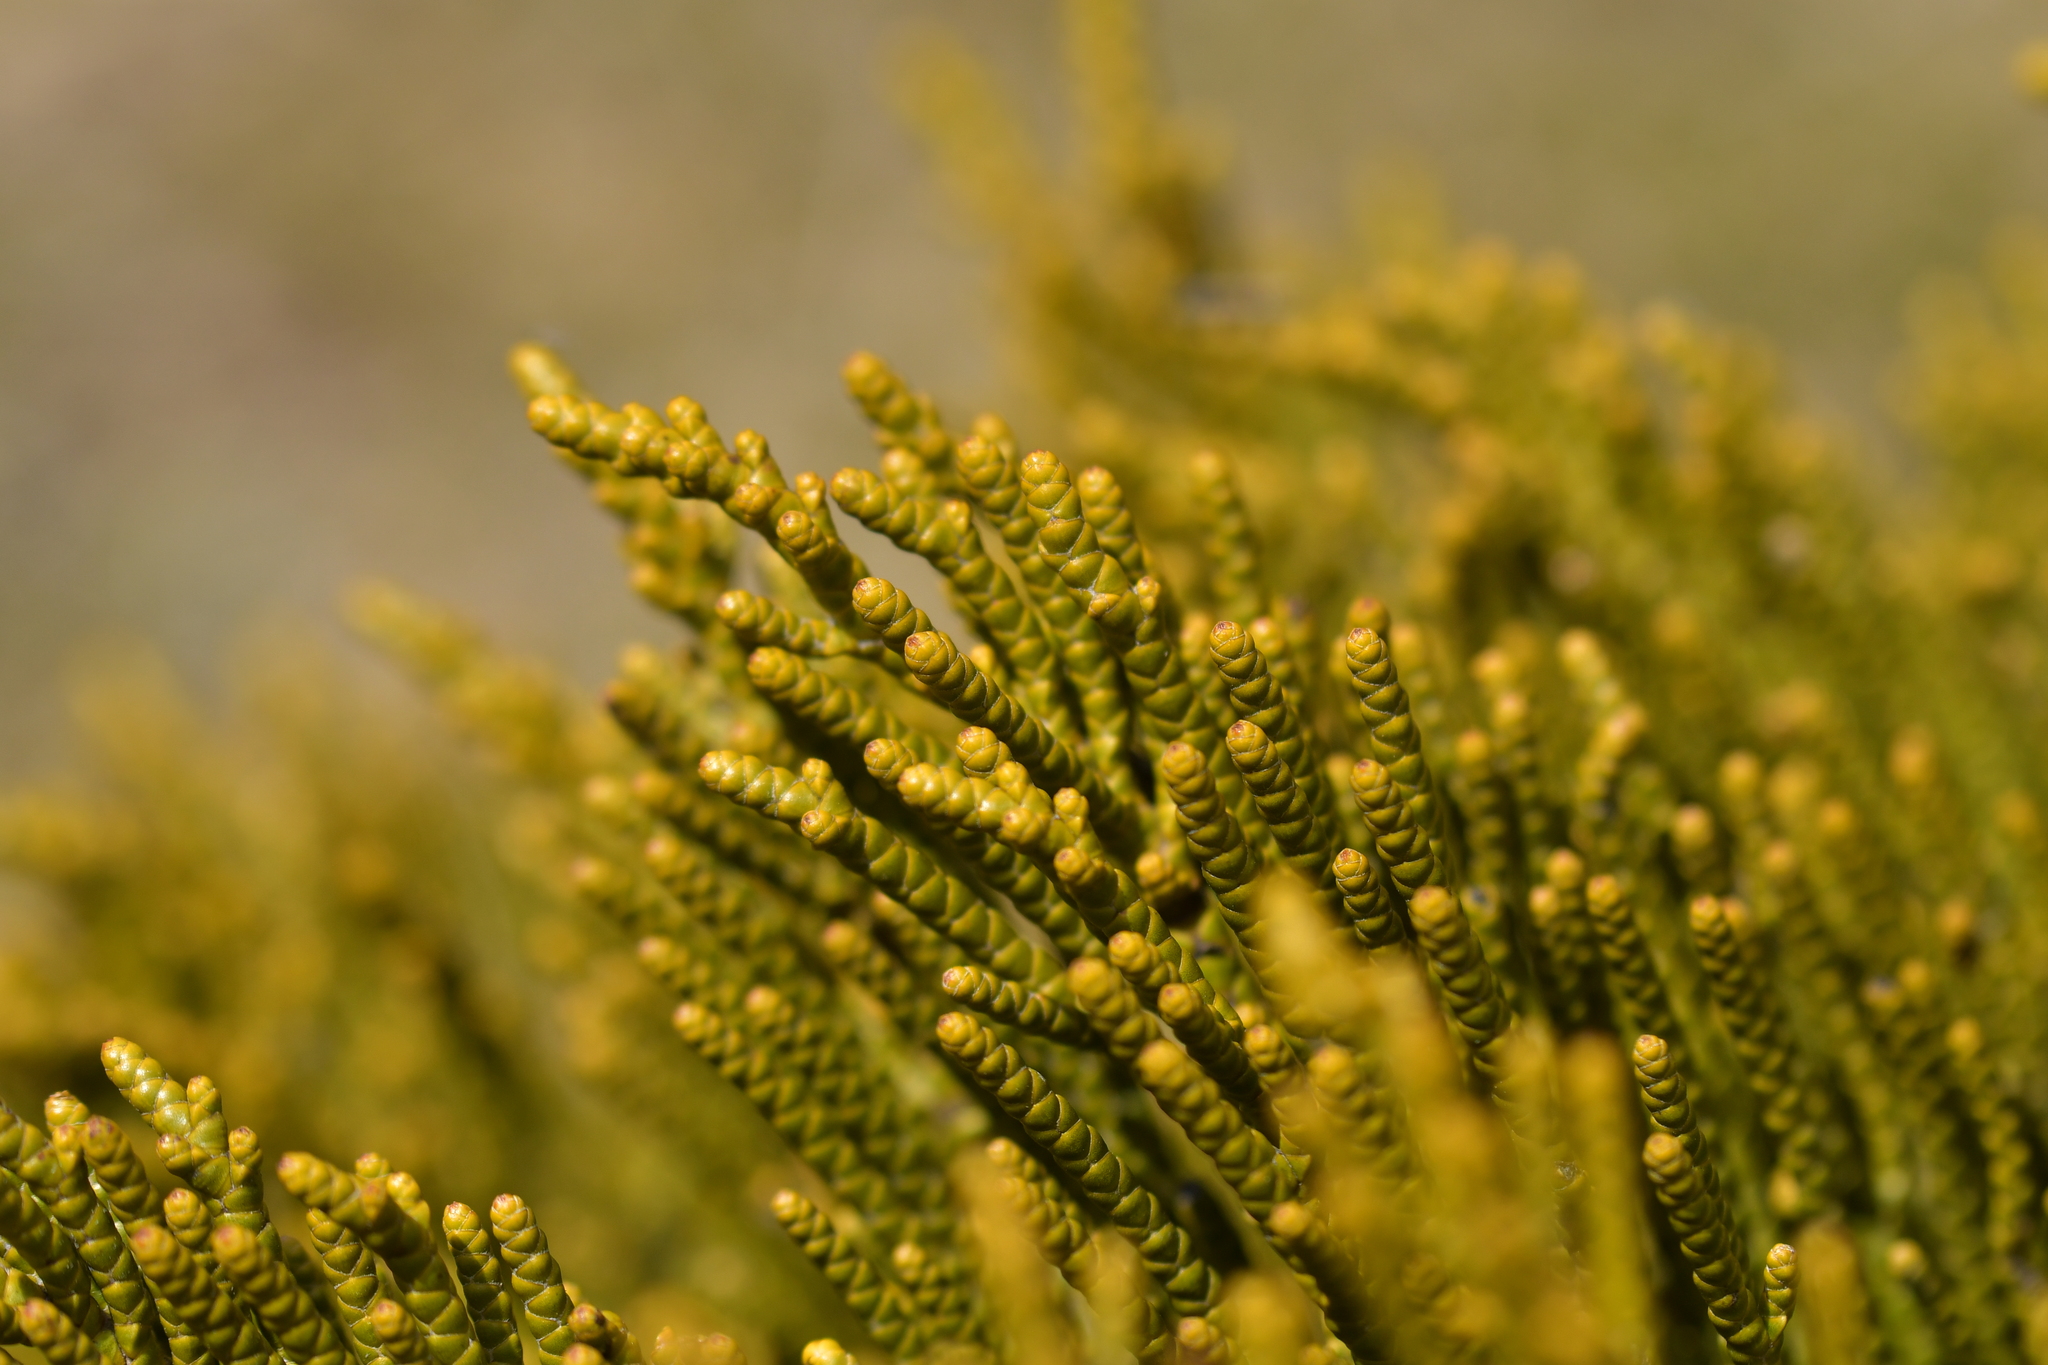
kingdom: Plantae
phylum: Tracheophyta
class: Magnoliopsida
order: Lamiales
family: Plantaginaceae
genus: Veronica
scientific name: Veronica hectorii
